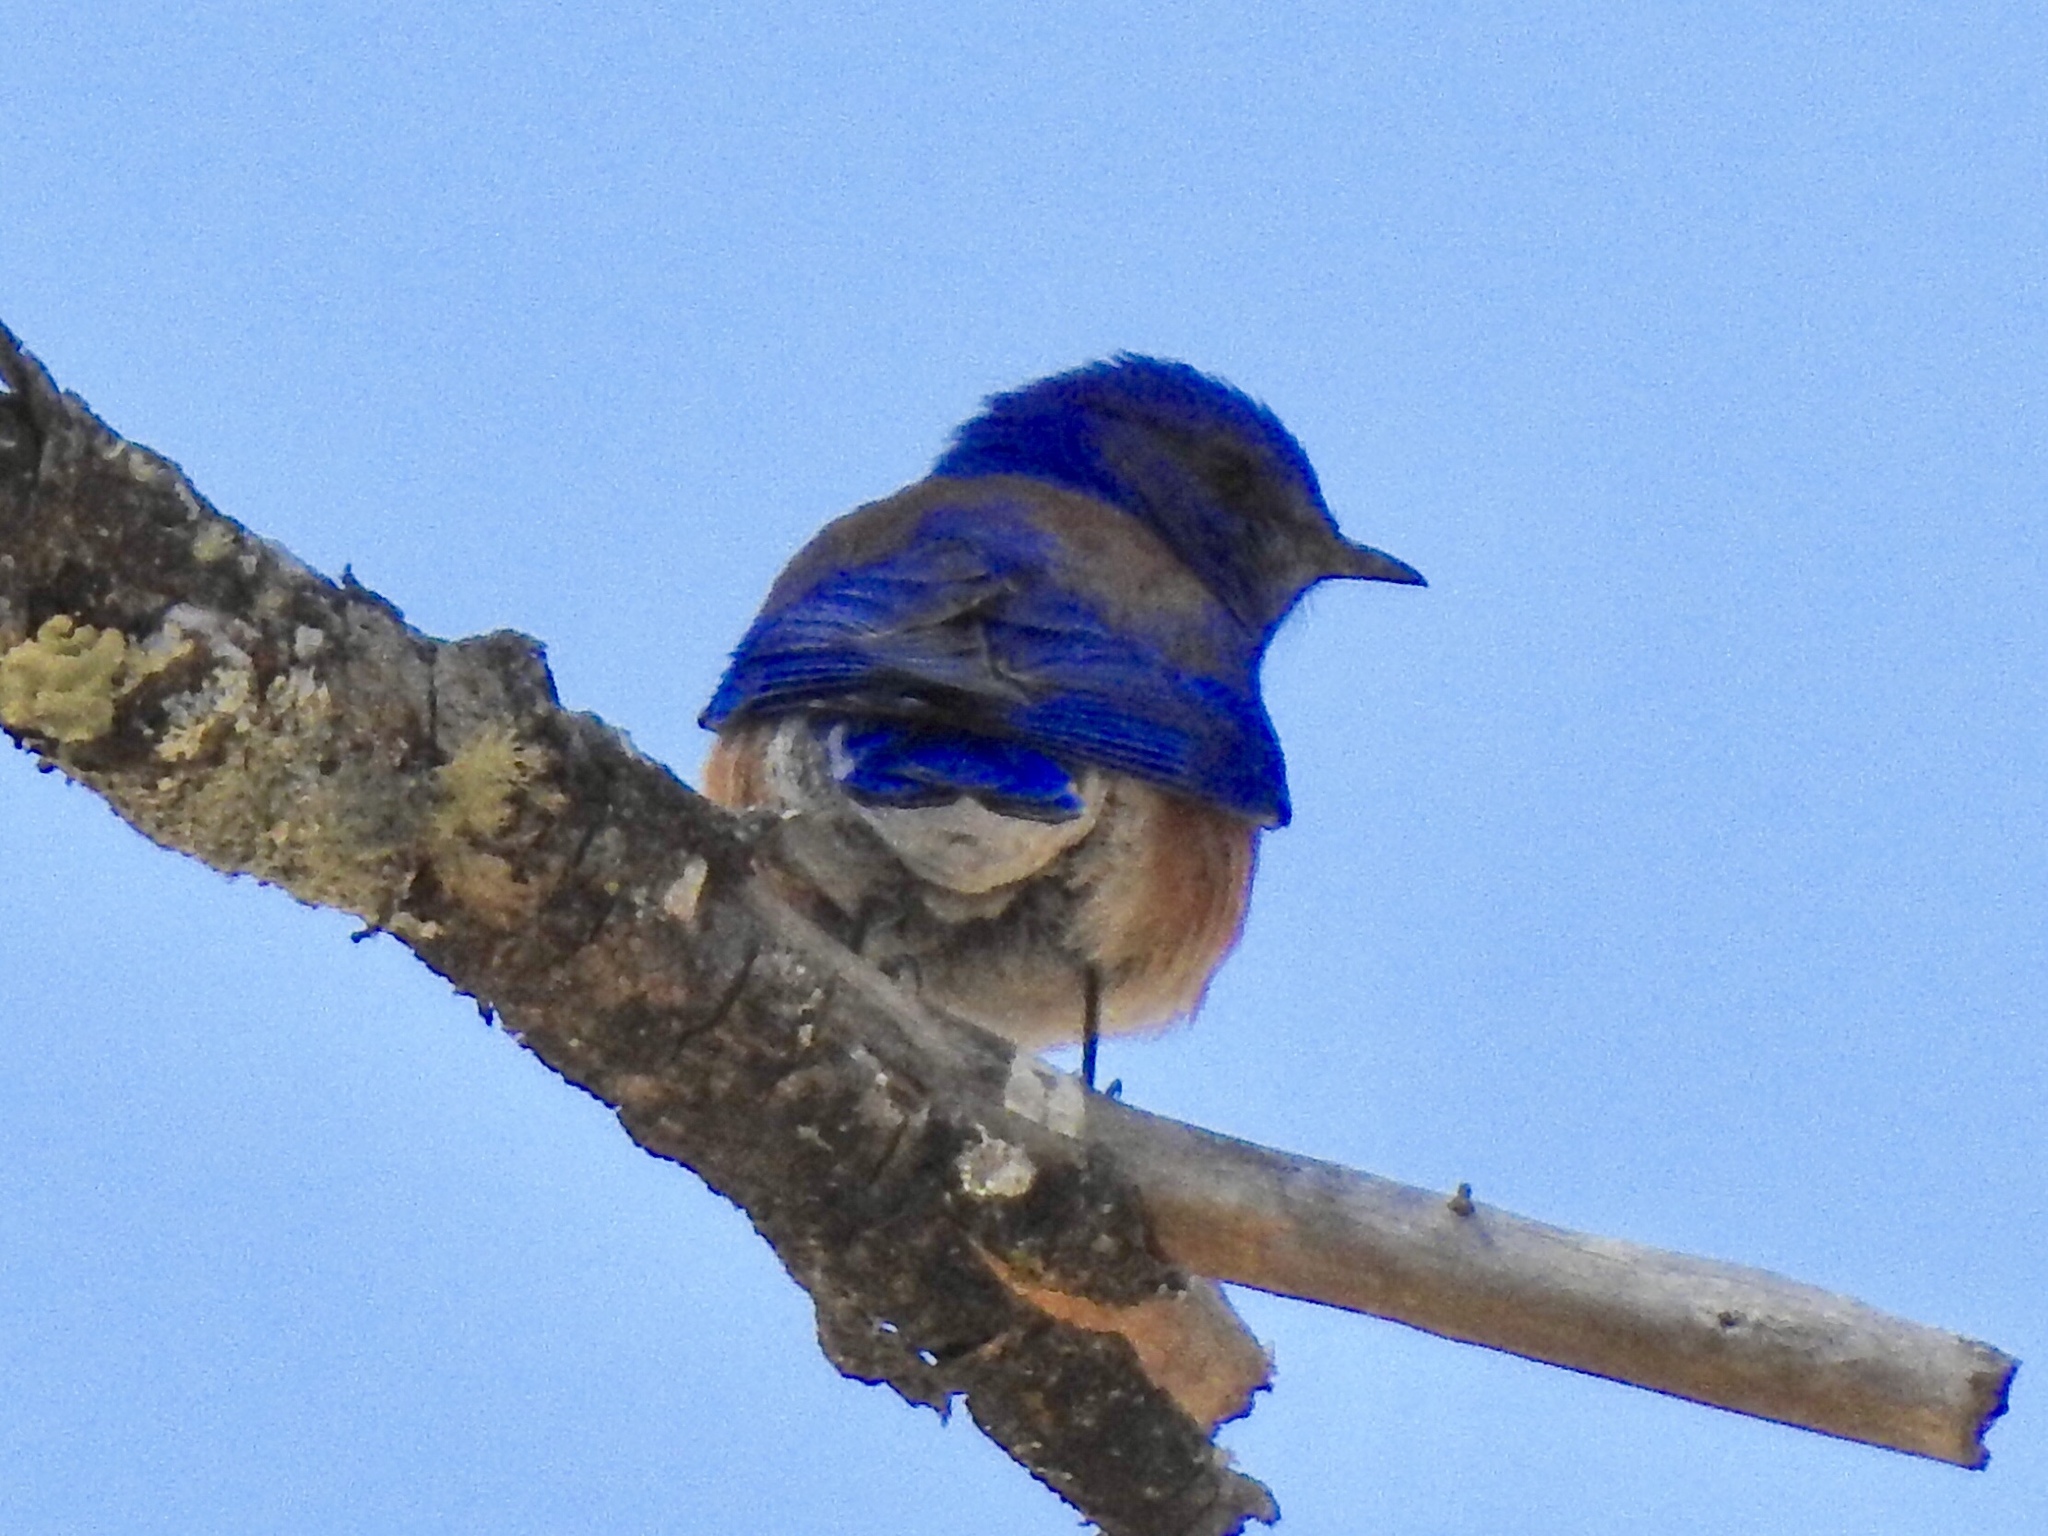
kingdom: Animalia
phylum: Chordata
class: Aves
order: Passeriformes
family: Turdidae
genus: Sialia
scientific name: Sialia mexicana
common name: Western bluebird
